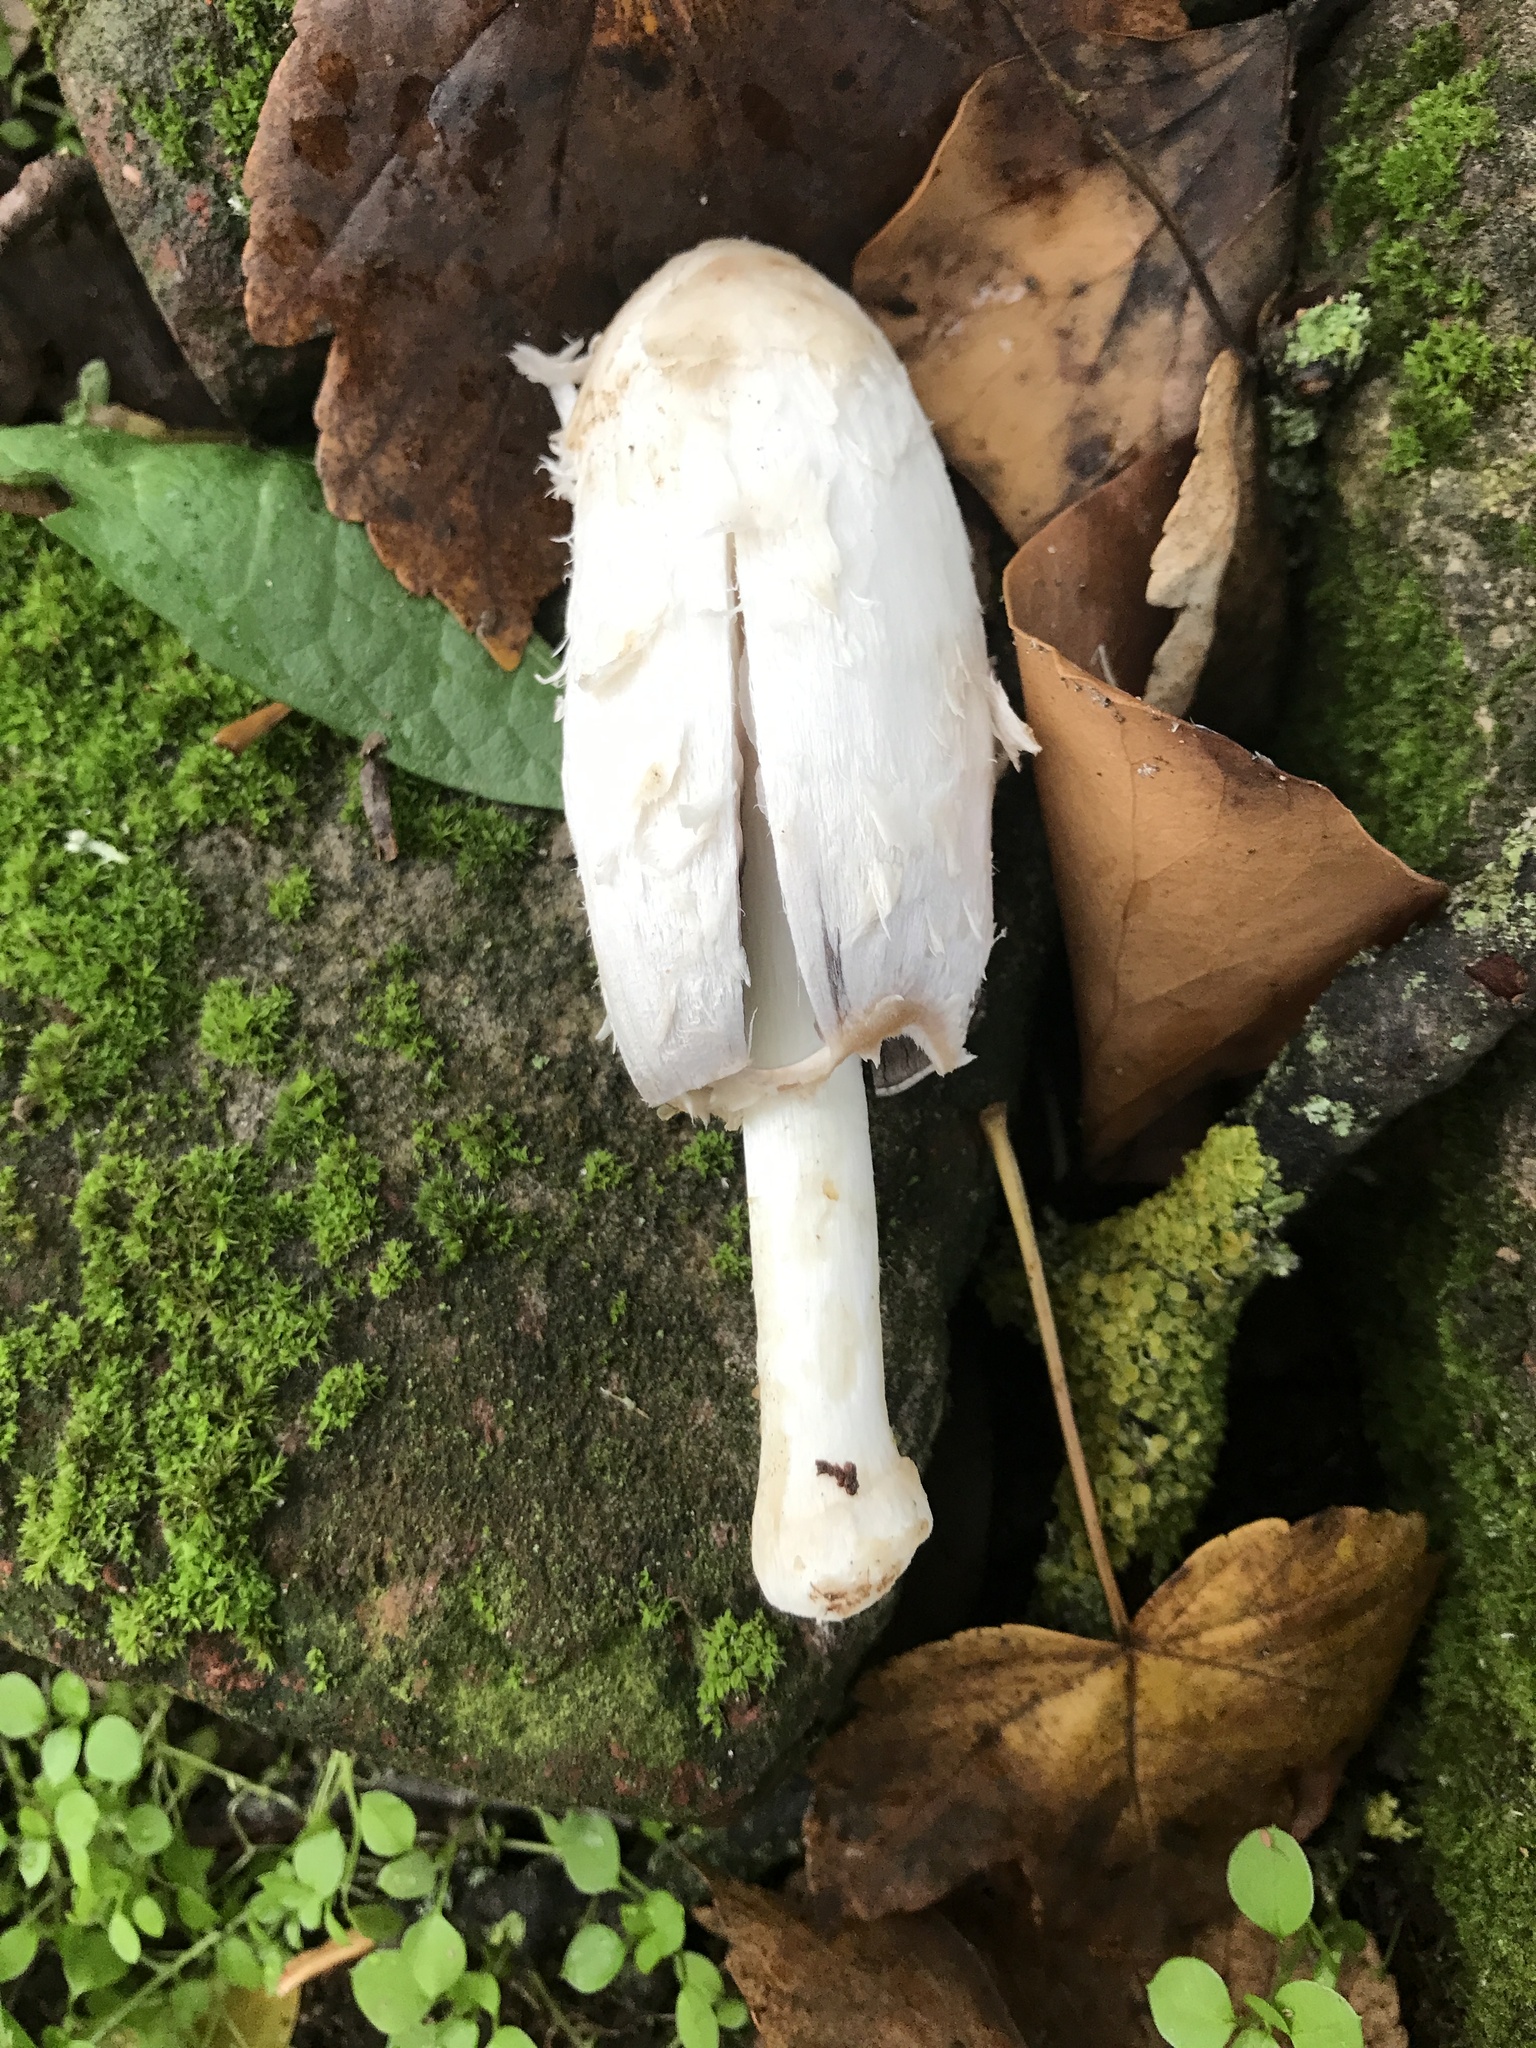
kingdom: Fungi
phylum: Basidiomycota
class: Agaricomycetes
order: Agaricales
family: Agaricaceae
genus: Coprinus
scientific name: Coprinus comatus
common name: Lawyer's wig
